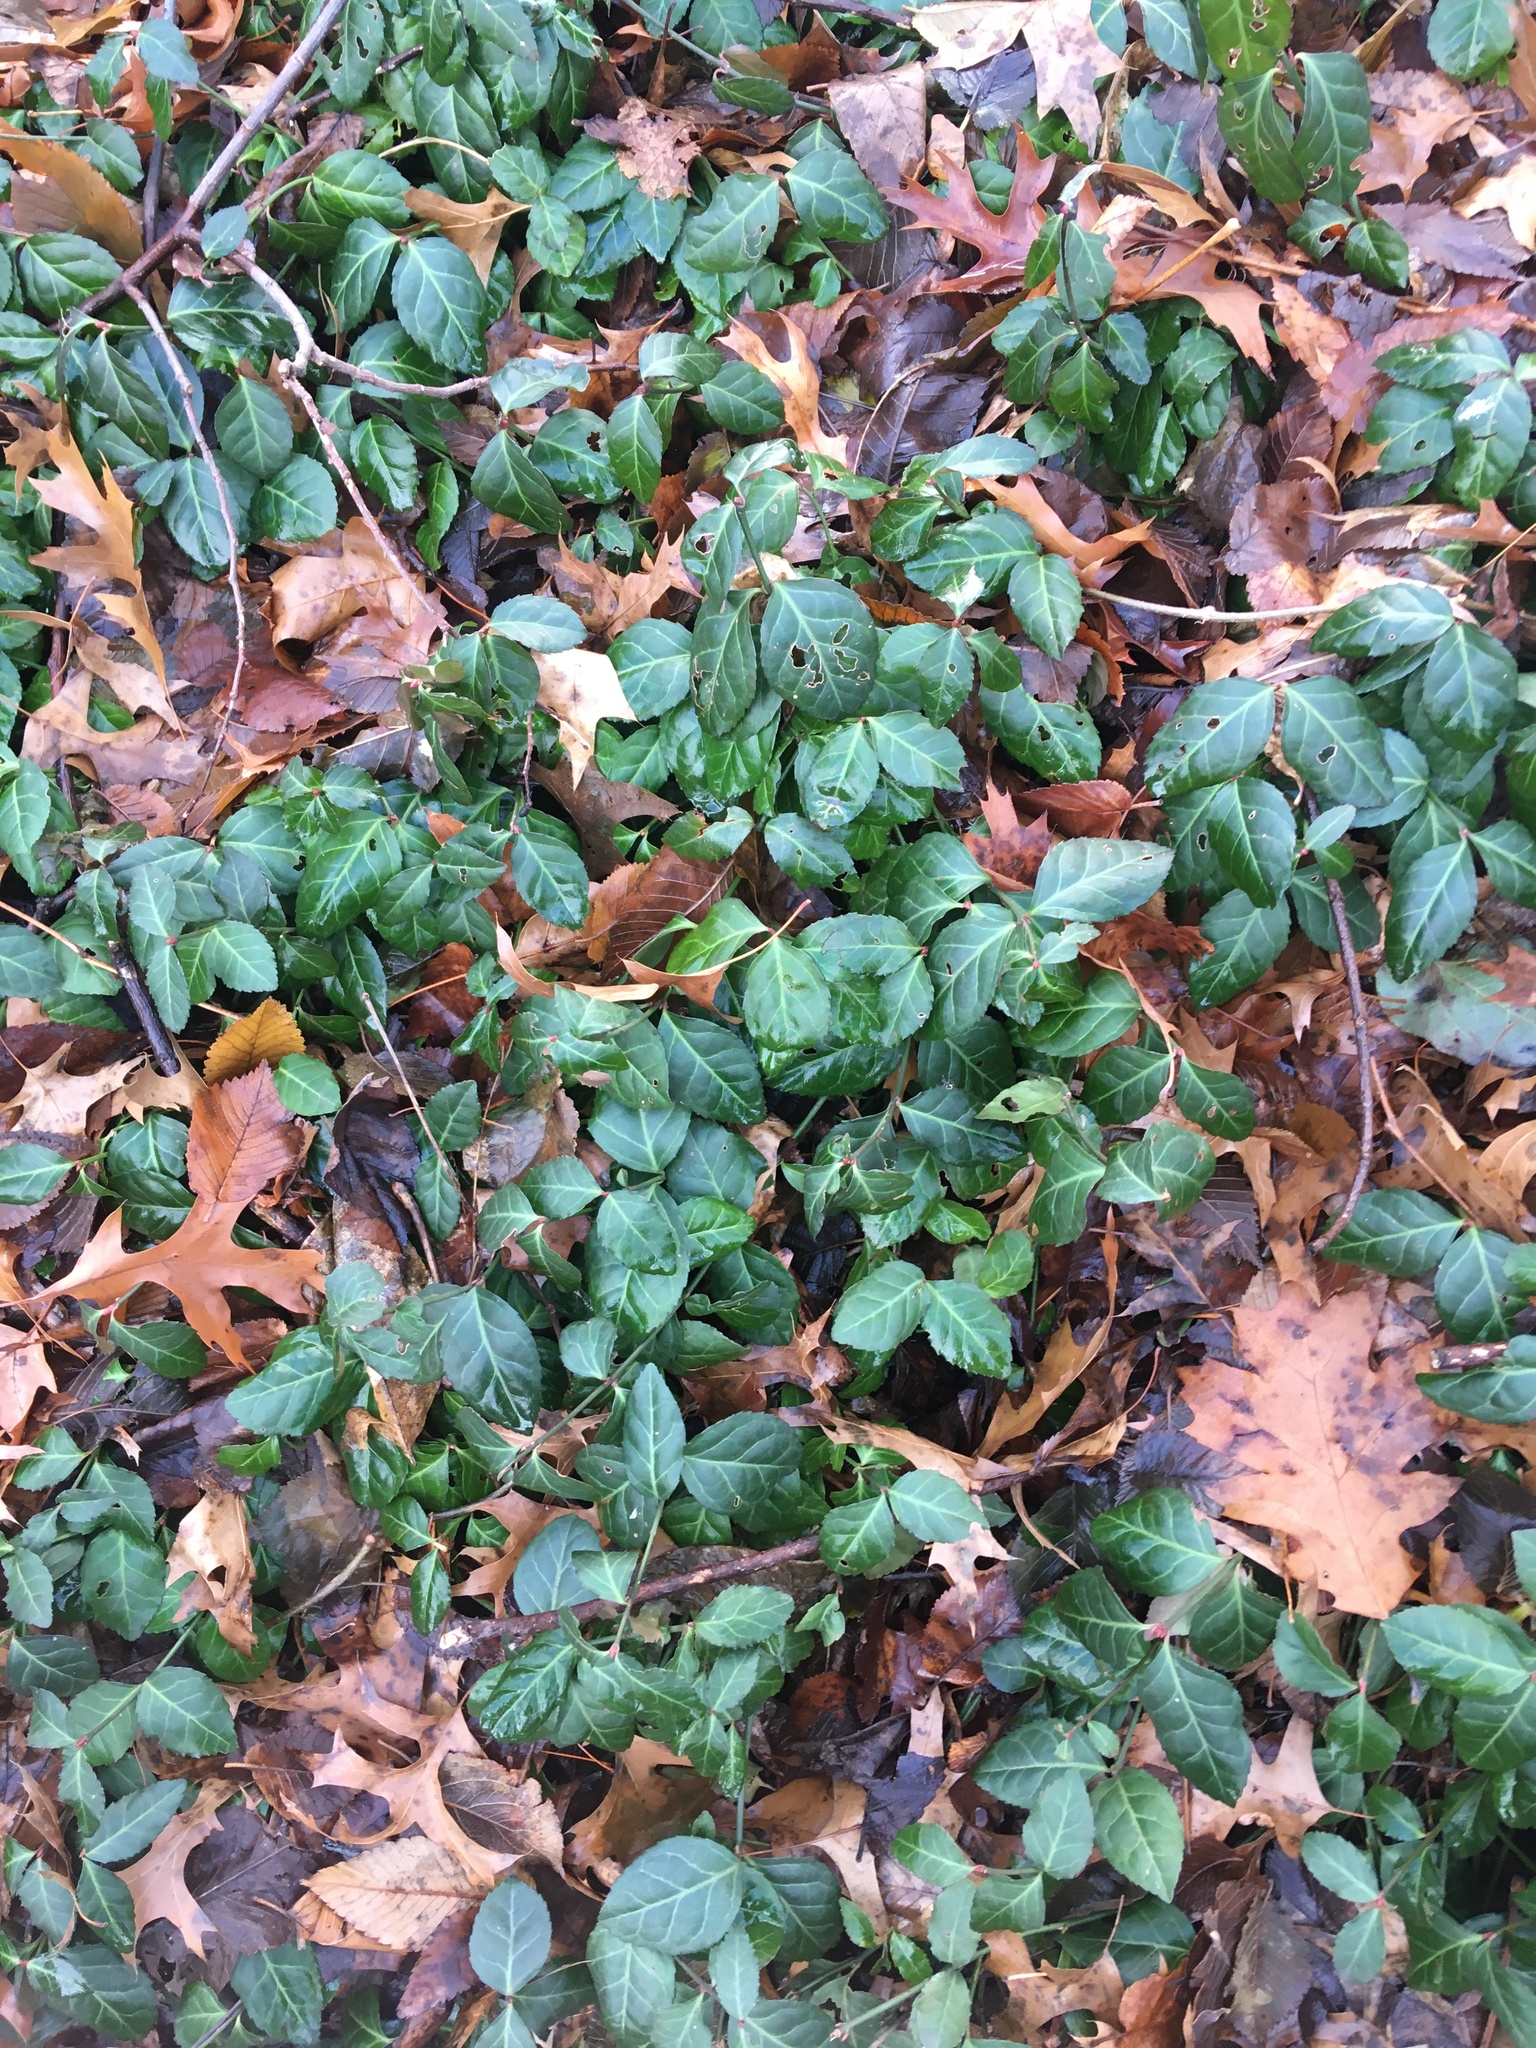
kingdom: Plantae
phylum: Tracheophyta
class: Magnoliopsida
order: Celastrales
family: Celastraceae
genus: Euonymus
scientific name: Euonymus fortunei
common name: Climbing euonymus
